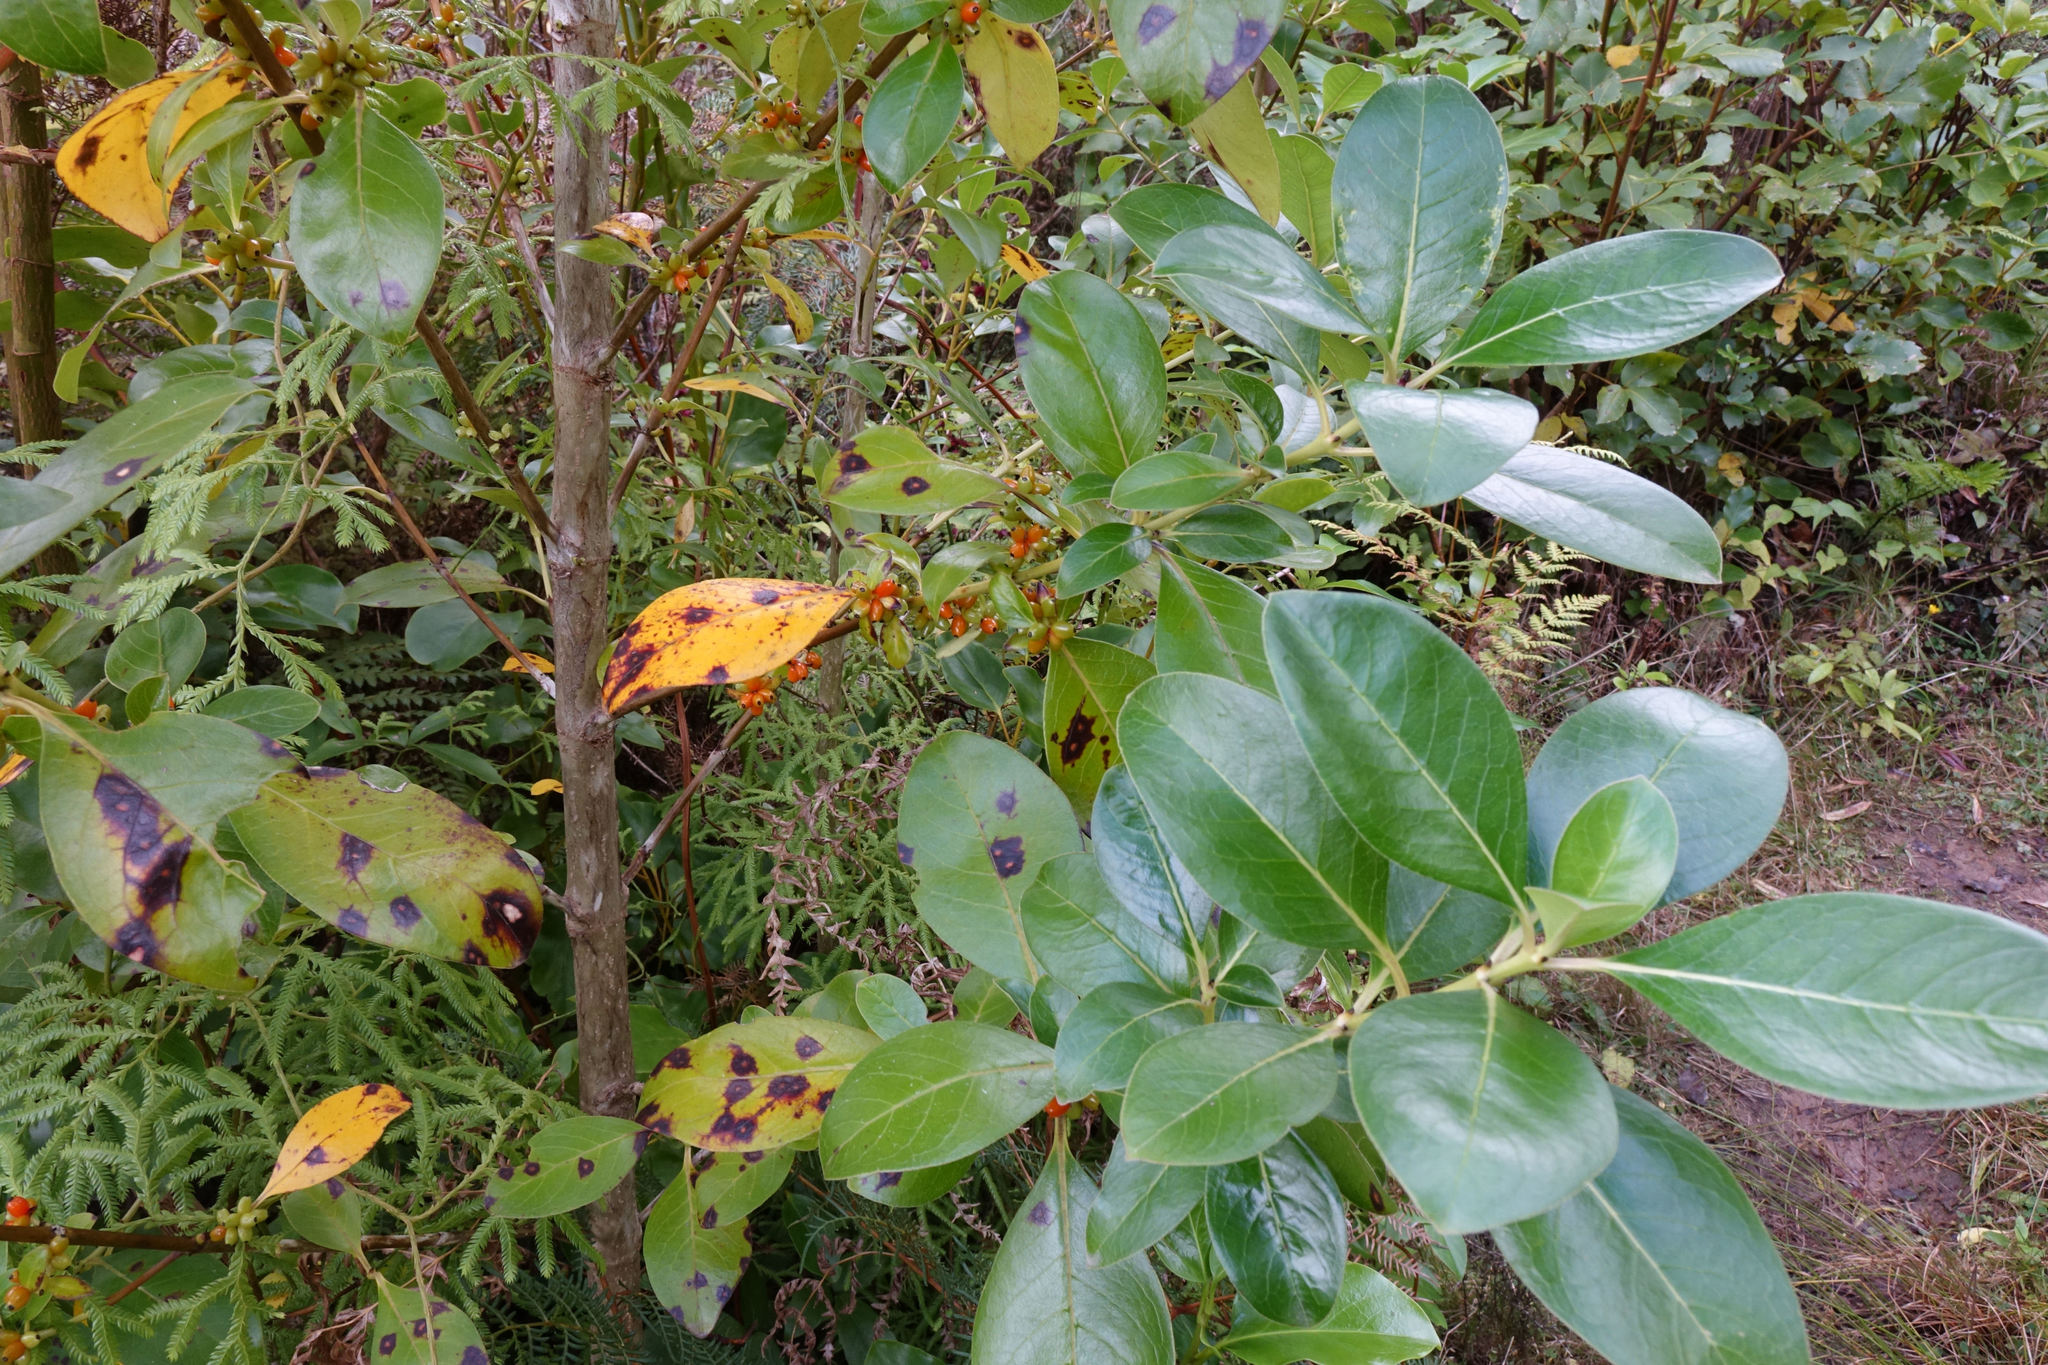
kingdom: Plantae
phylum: Tracheophyta
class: Magnoliopsida
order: Gentianales
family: Rubiaceae
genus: Coprosma
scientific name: Coprosma robusta
